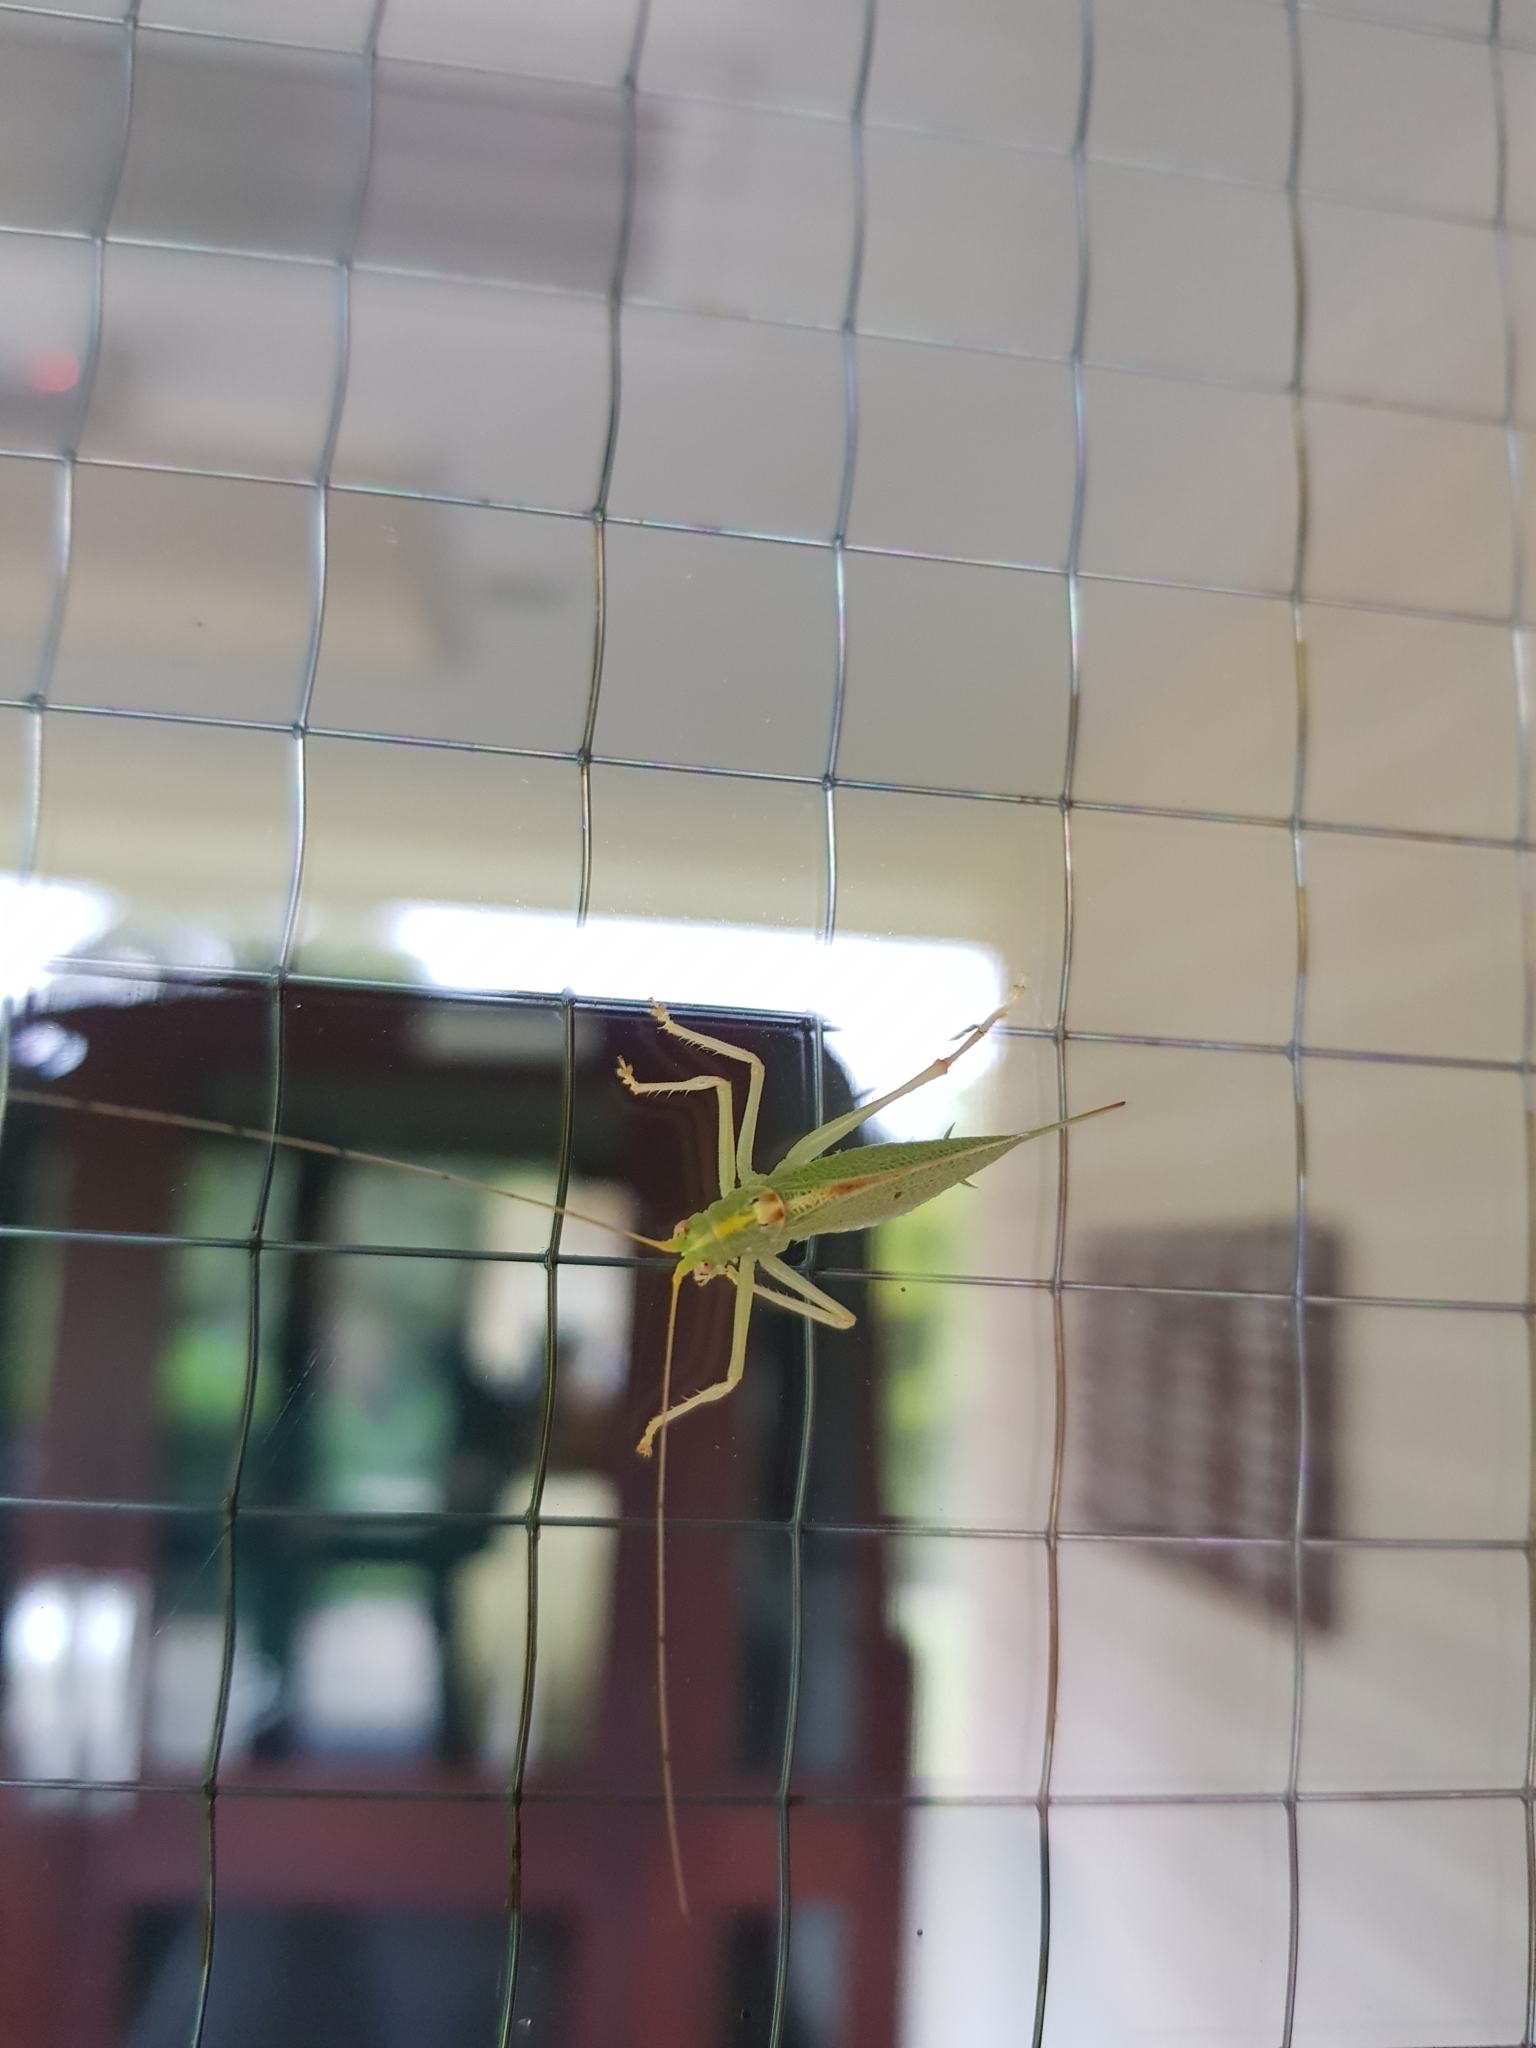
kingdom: Animalia
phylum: Arthropoda
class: Insecta
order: Orthoptera
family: Tettigoniidae
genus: Meconema
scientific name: Meconema thalassinum
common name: Oak bush-cricket
